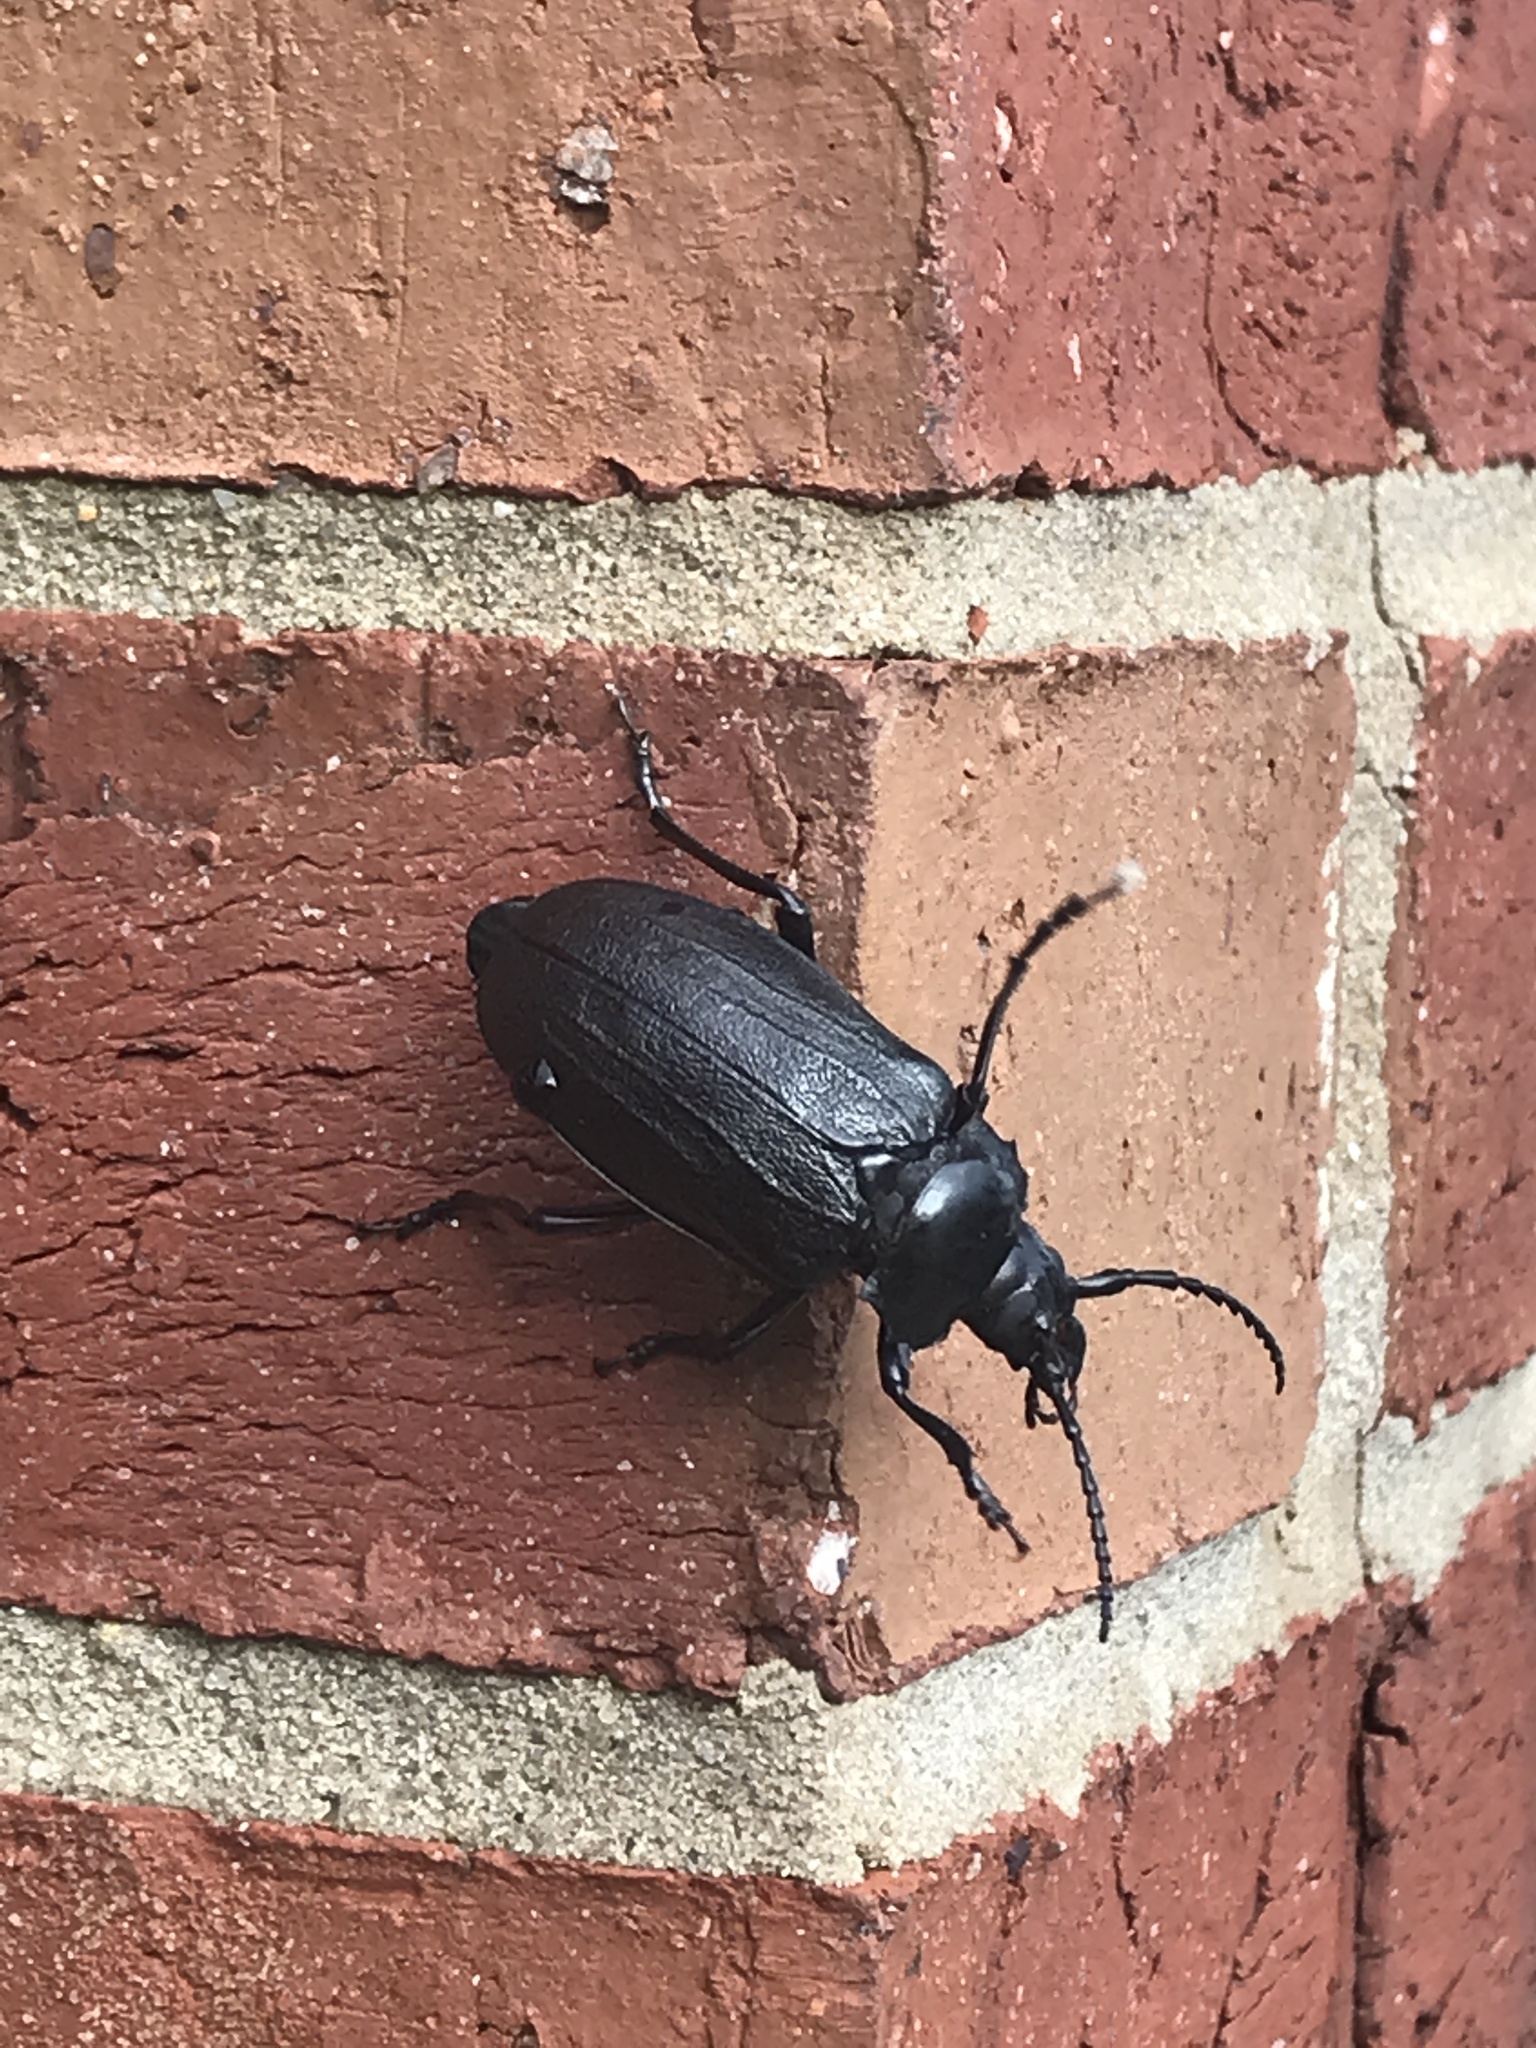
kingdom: Animalia
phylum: Arthropoda
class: Insecta
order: Coleoptera
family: Cerambycidae
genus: Prionus
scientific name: Prionus laticollis
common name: Broad necked prionus
